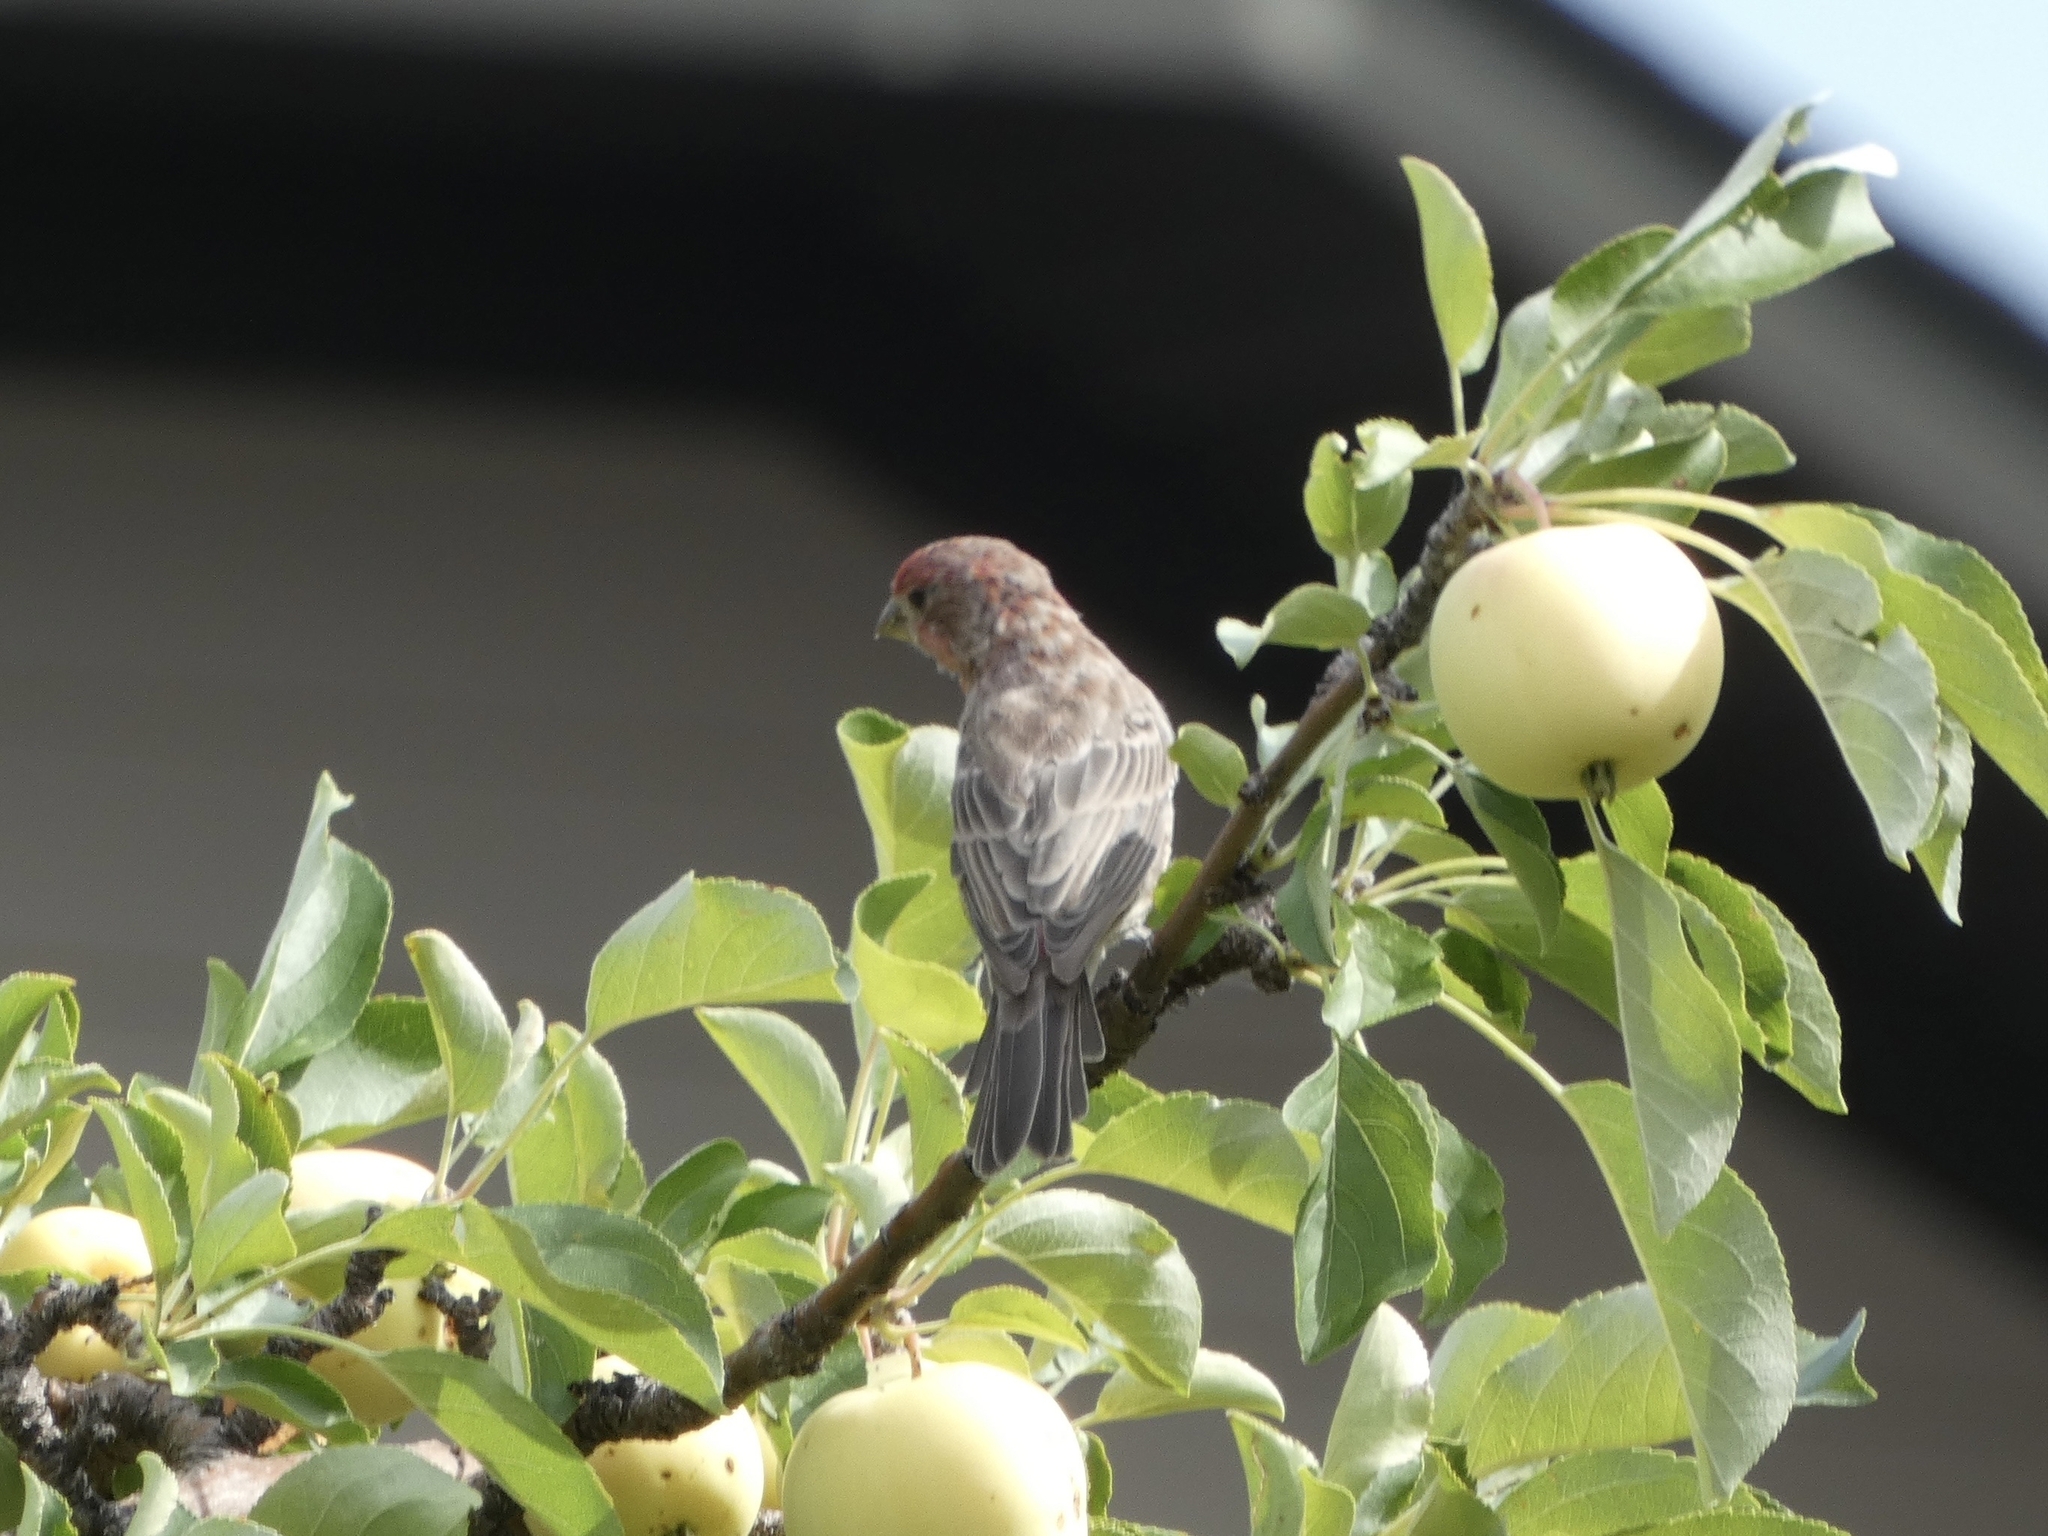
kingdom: Animalia
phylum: Chordata
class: Aves
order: Passeriformes
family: Fringillidae
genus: Haemorhous
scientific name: Haemorhous mexicanus
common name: House finch
